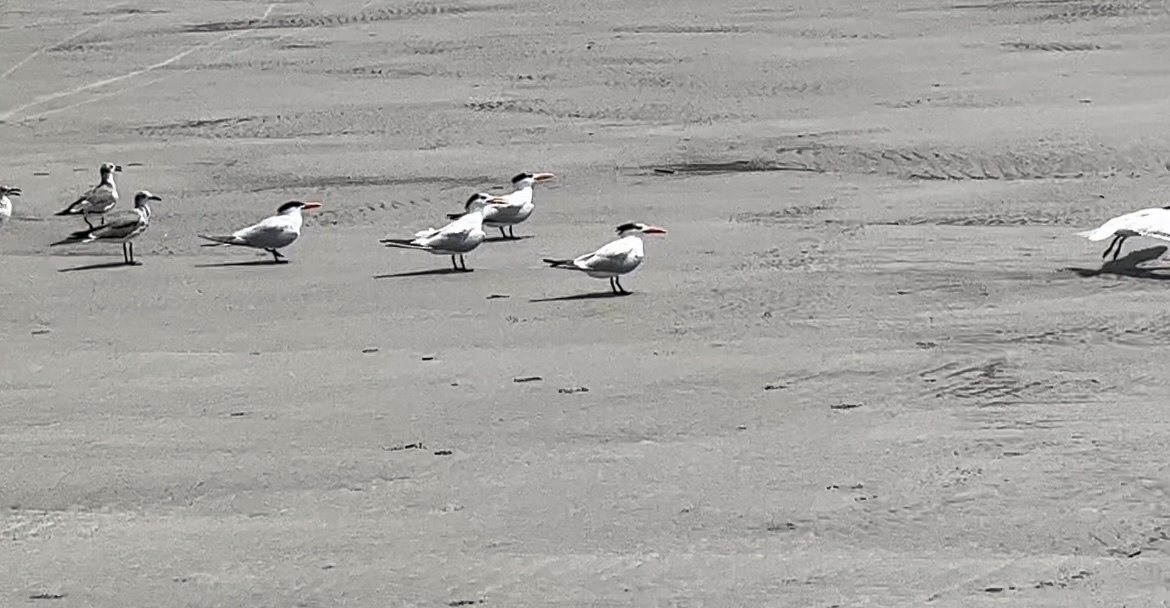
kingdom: Animalia
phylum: Chordata
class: Aves
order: Charadriiformes
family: Laridae
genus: Thalasseus
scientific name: Thalasseus maximus
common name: Royal tern
